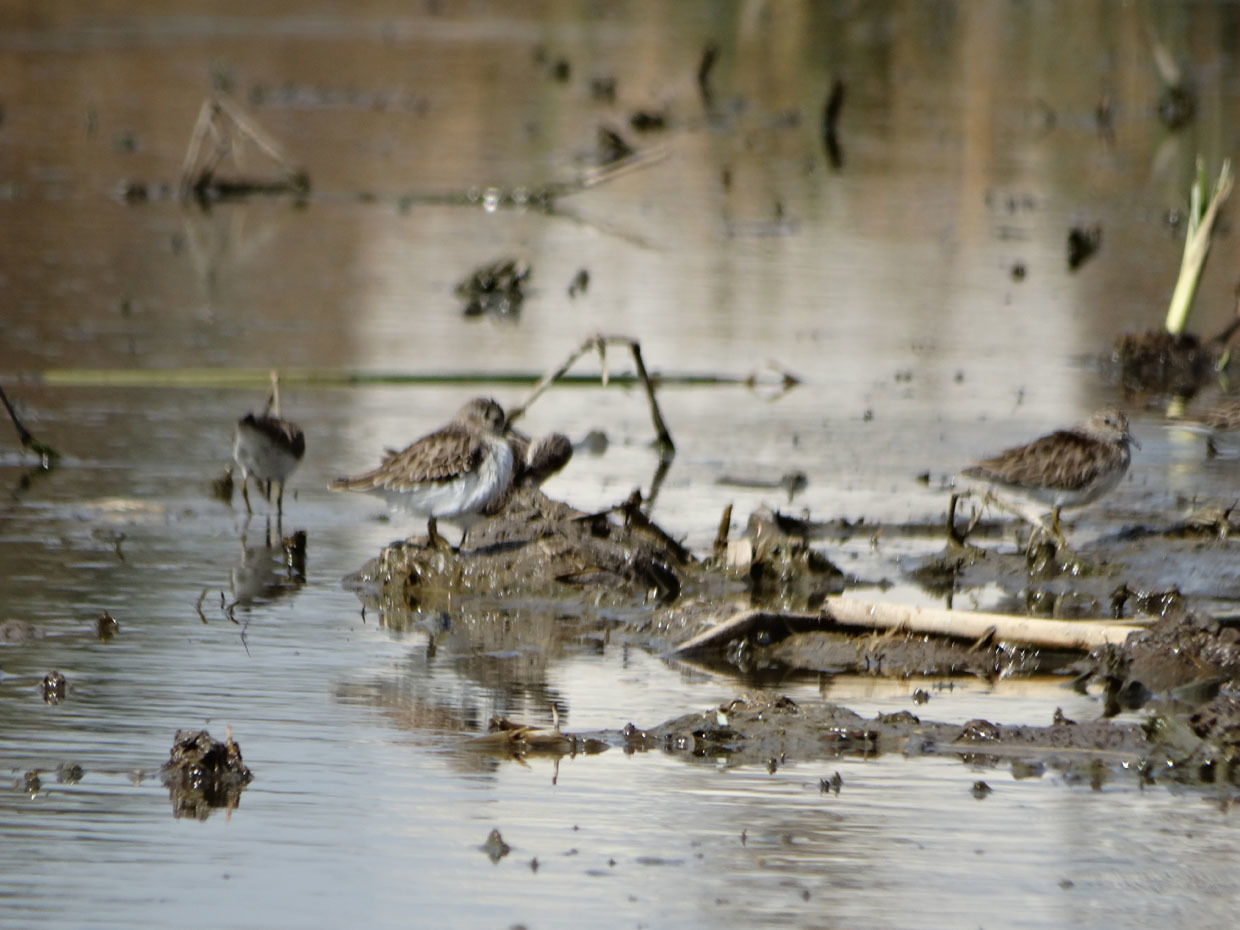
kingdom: Animalia
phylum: Chordata
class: Aves
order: Charadriiformes
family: Scolopacidae
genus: Calidris
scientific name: Calidris minutilla
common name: Least sandpiper
